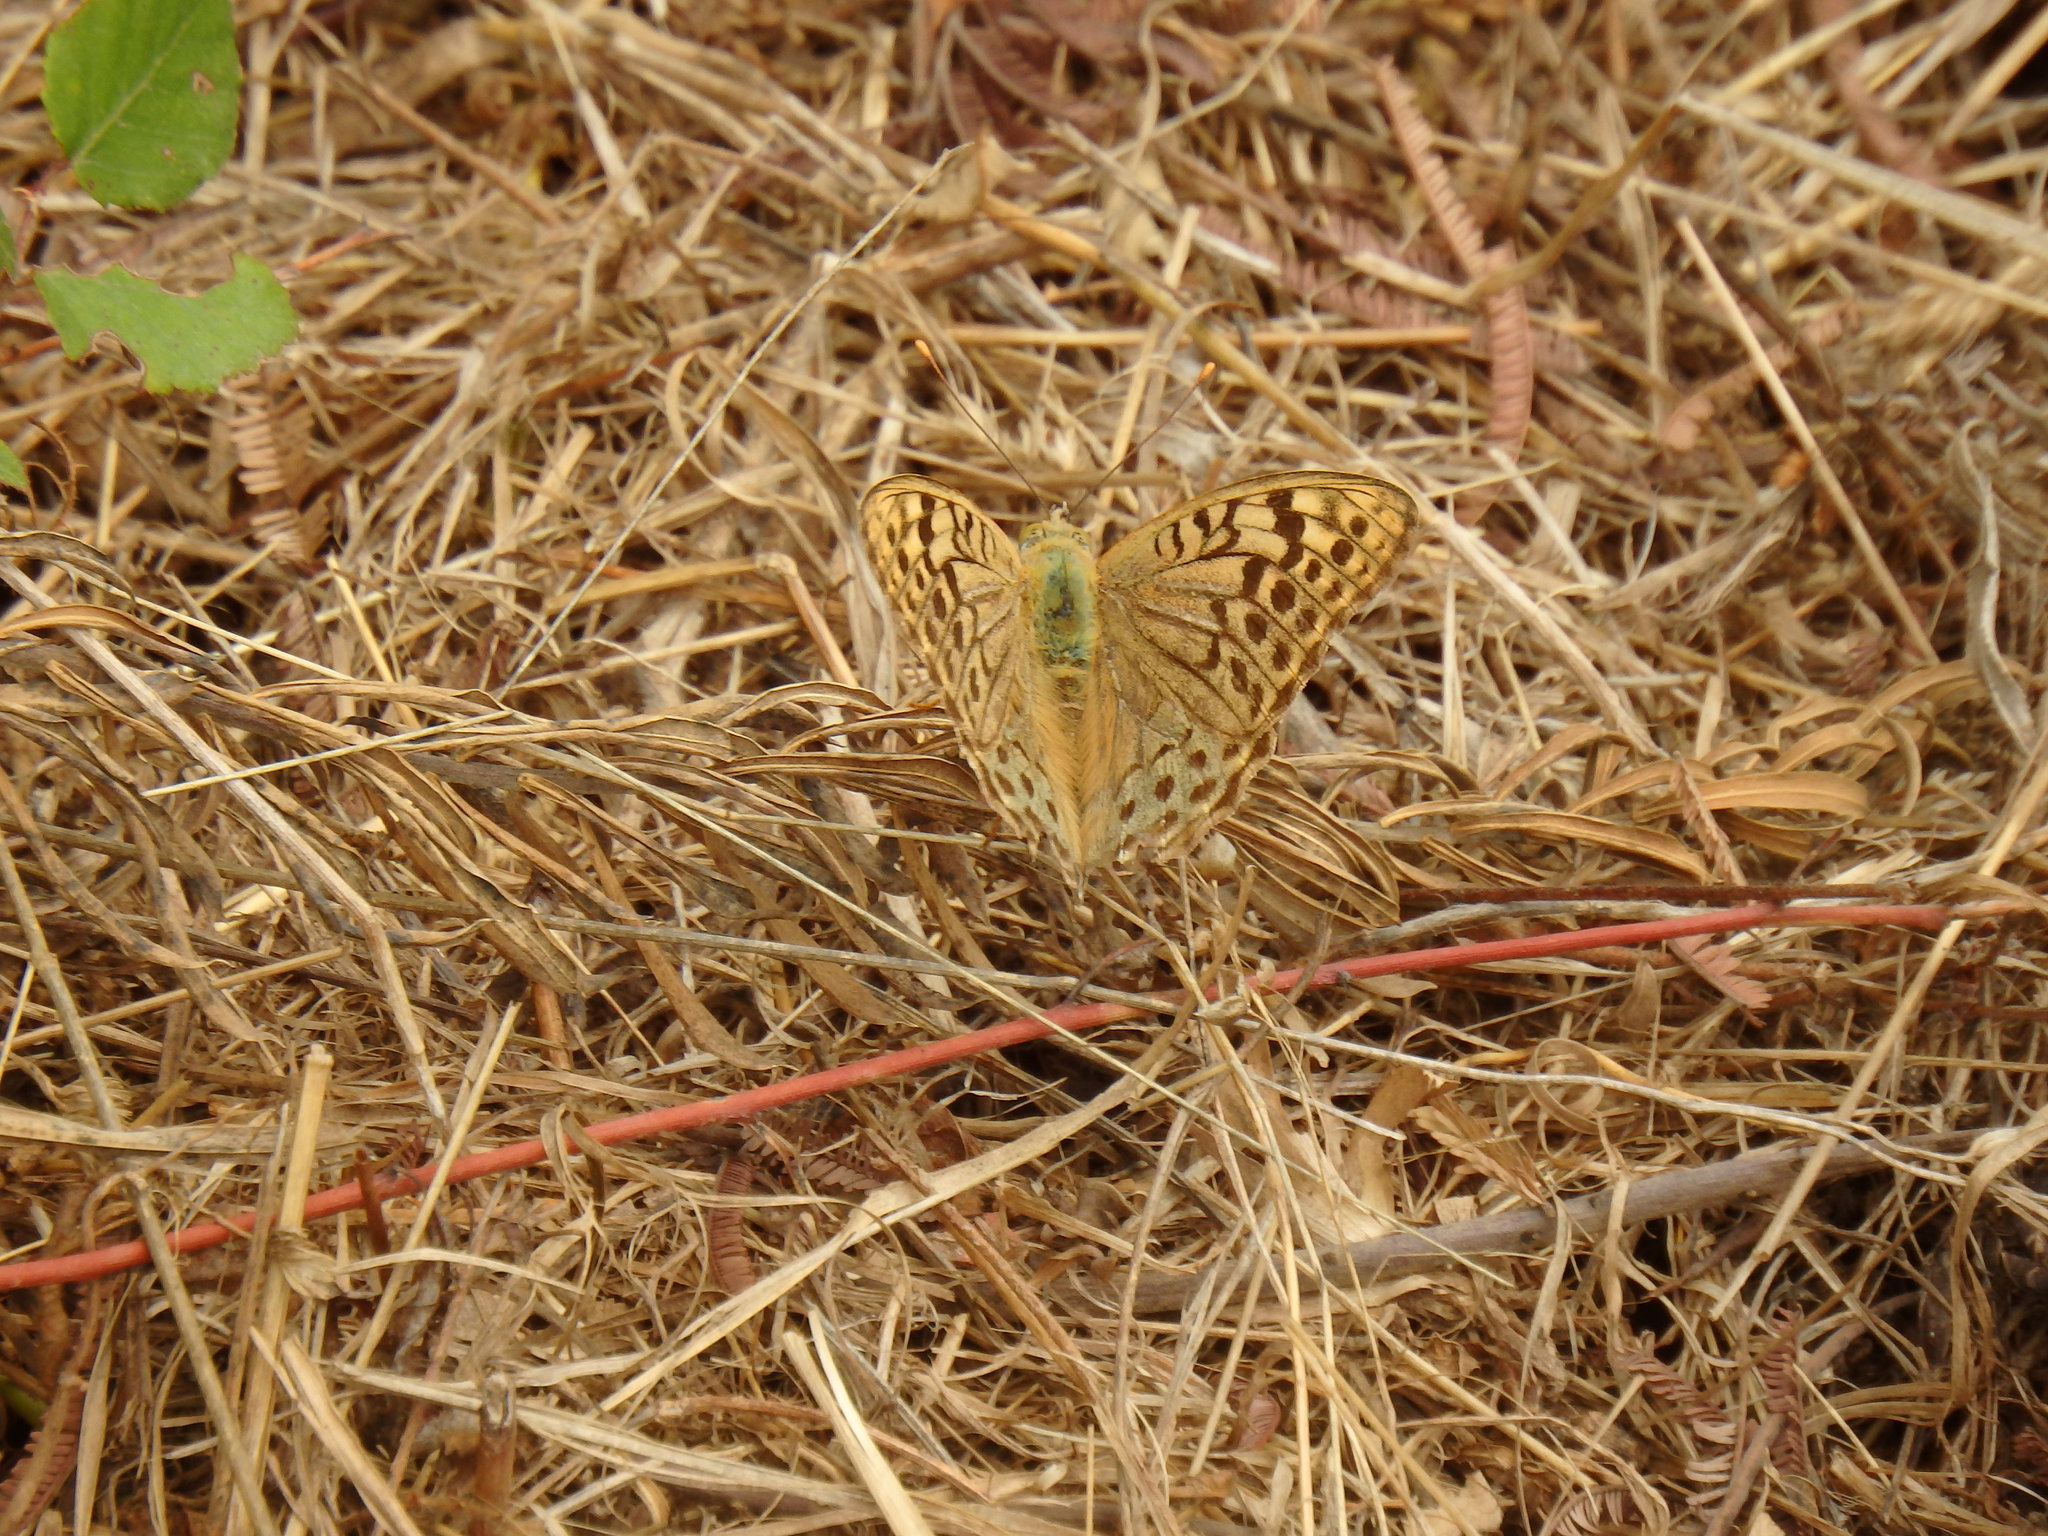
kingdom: Animalia
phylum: Arthropoda
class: Insecta
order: Lepidoptera
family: Nymphalidae
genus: Damora
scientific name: Damora pandora
